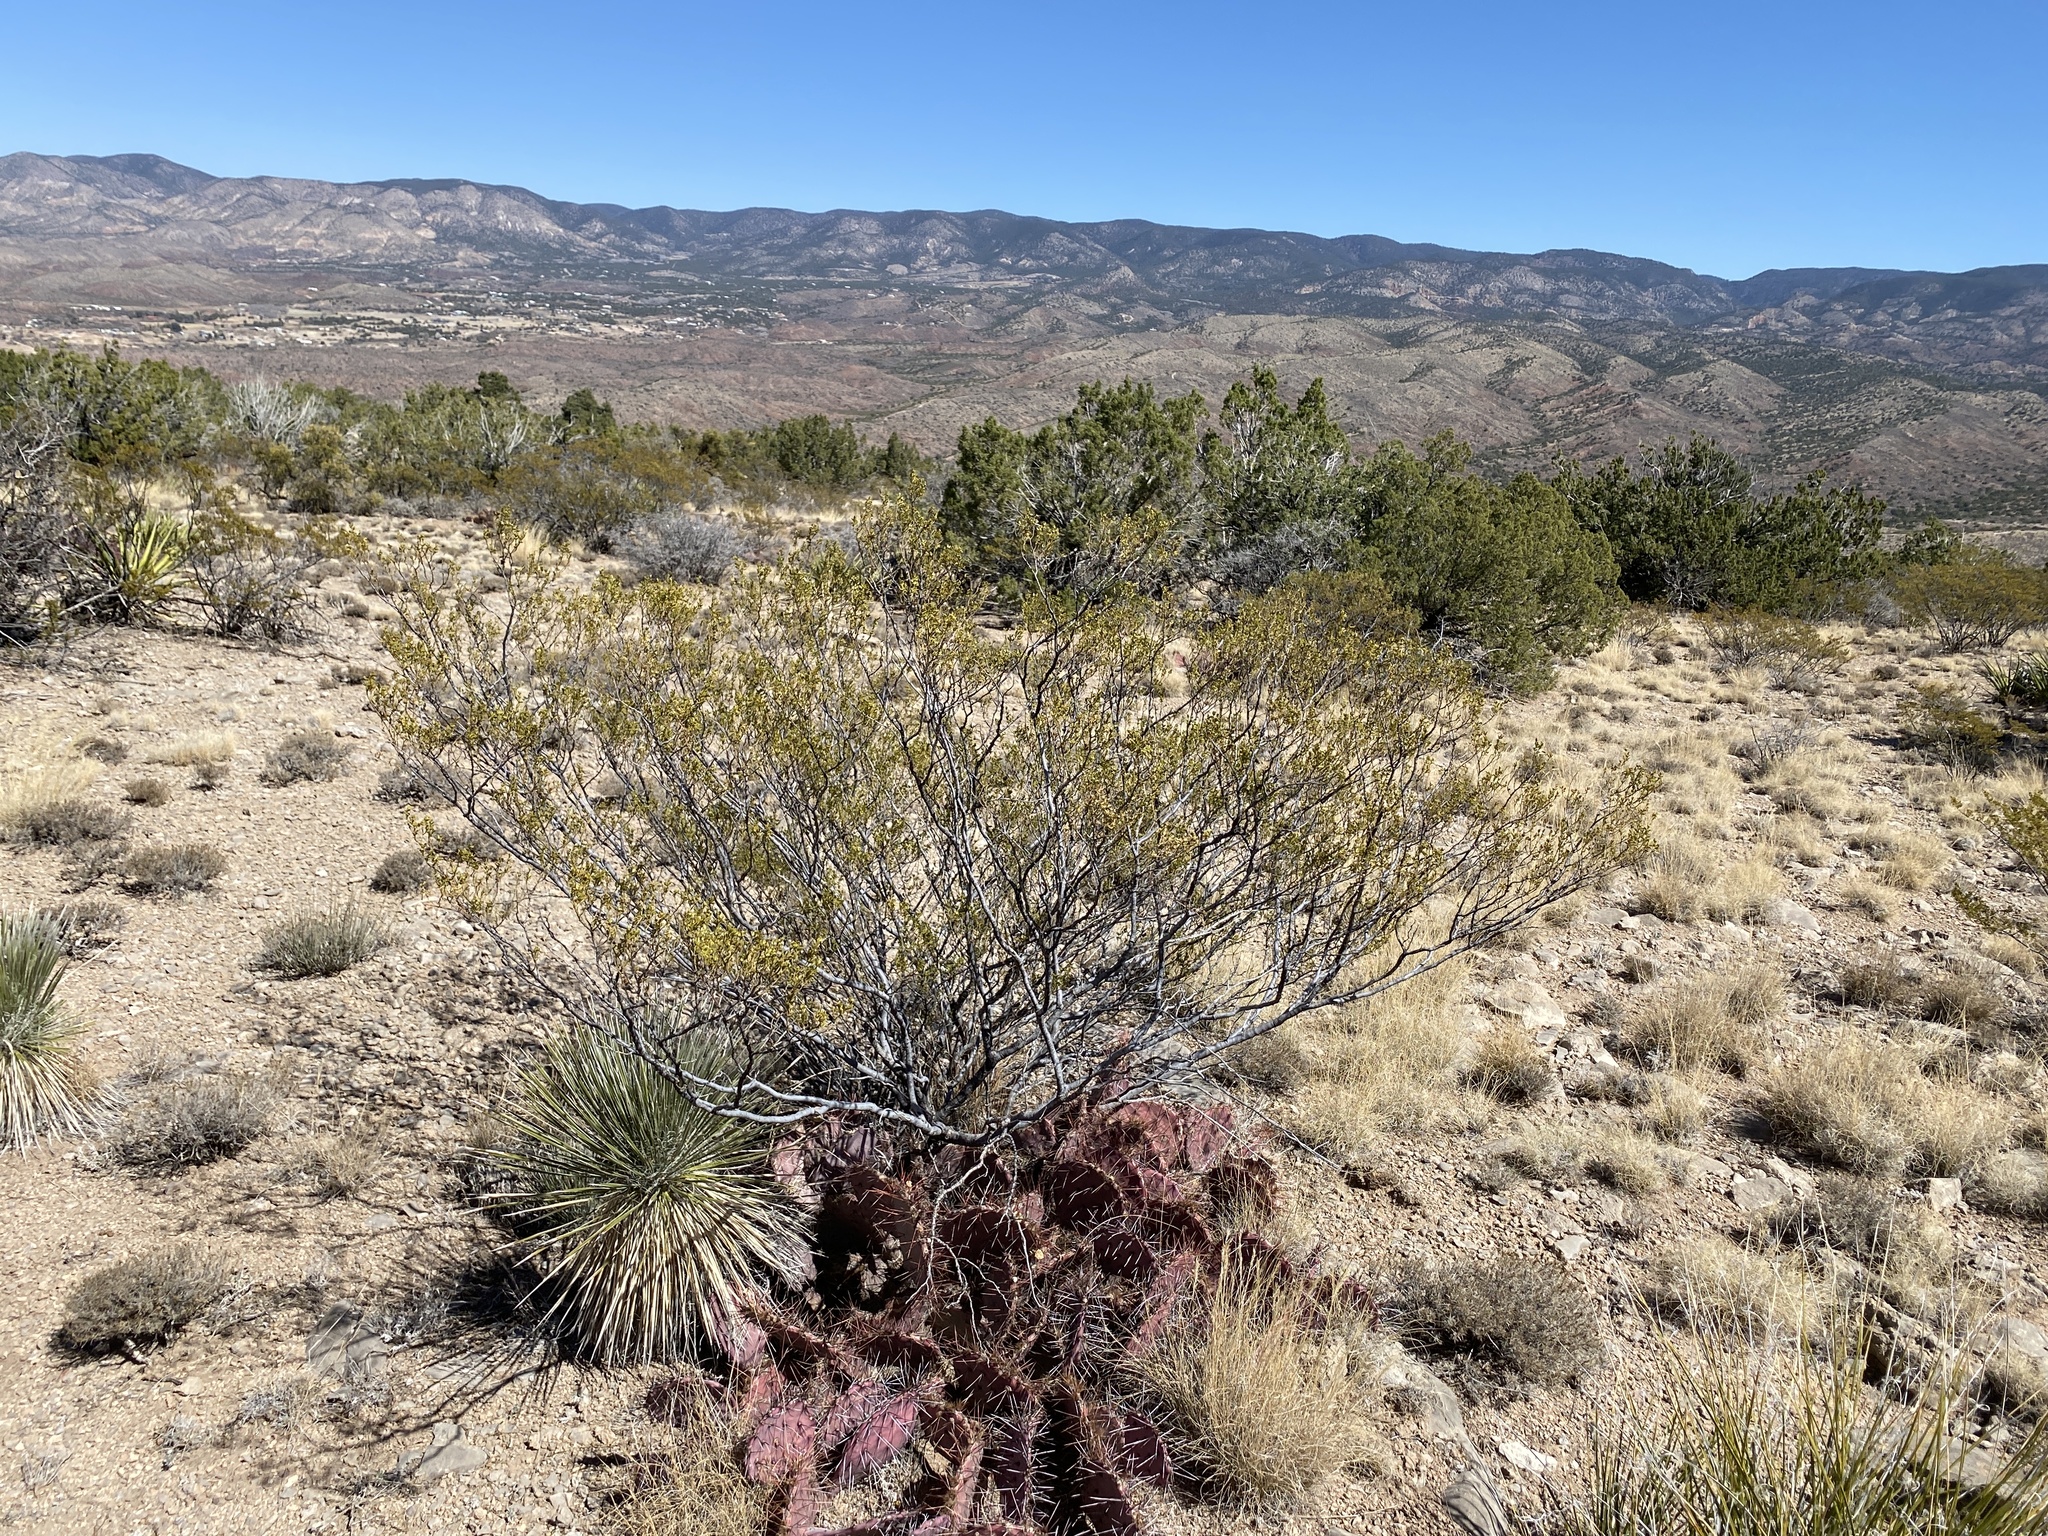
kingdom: Plantae
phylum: Tracheophyta
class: Magnoliopsida
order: Zygophyllales
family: Zygophyllaceae
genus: Larrea
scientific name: Larrea tridentata
